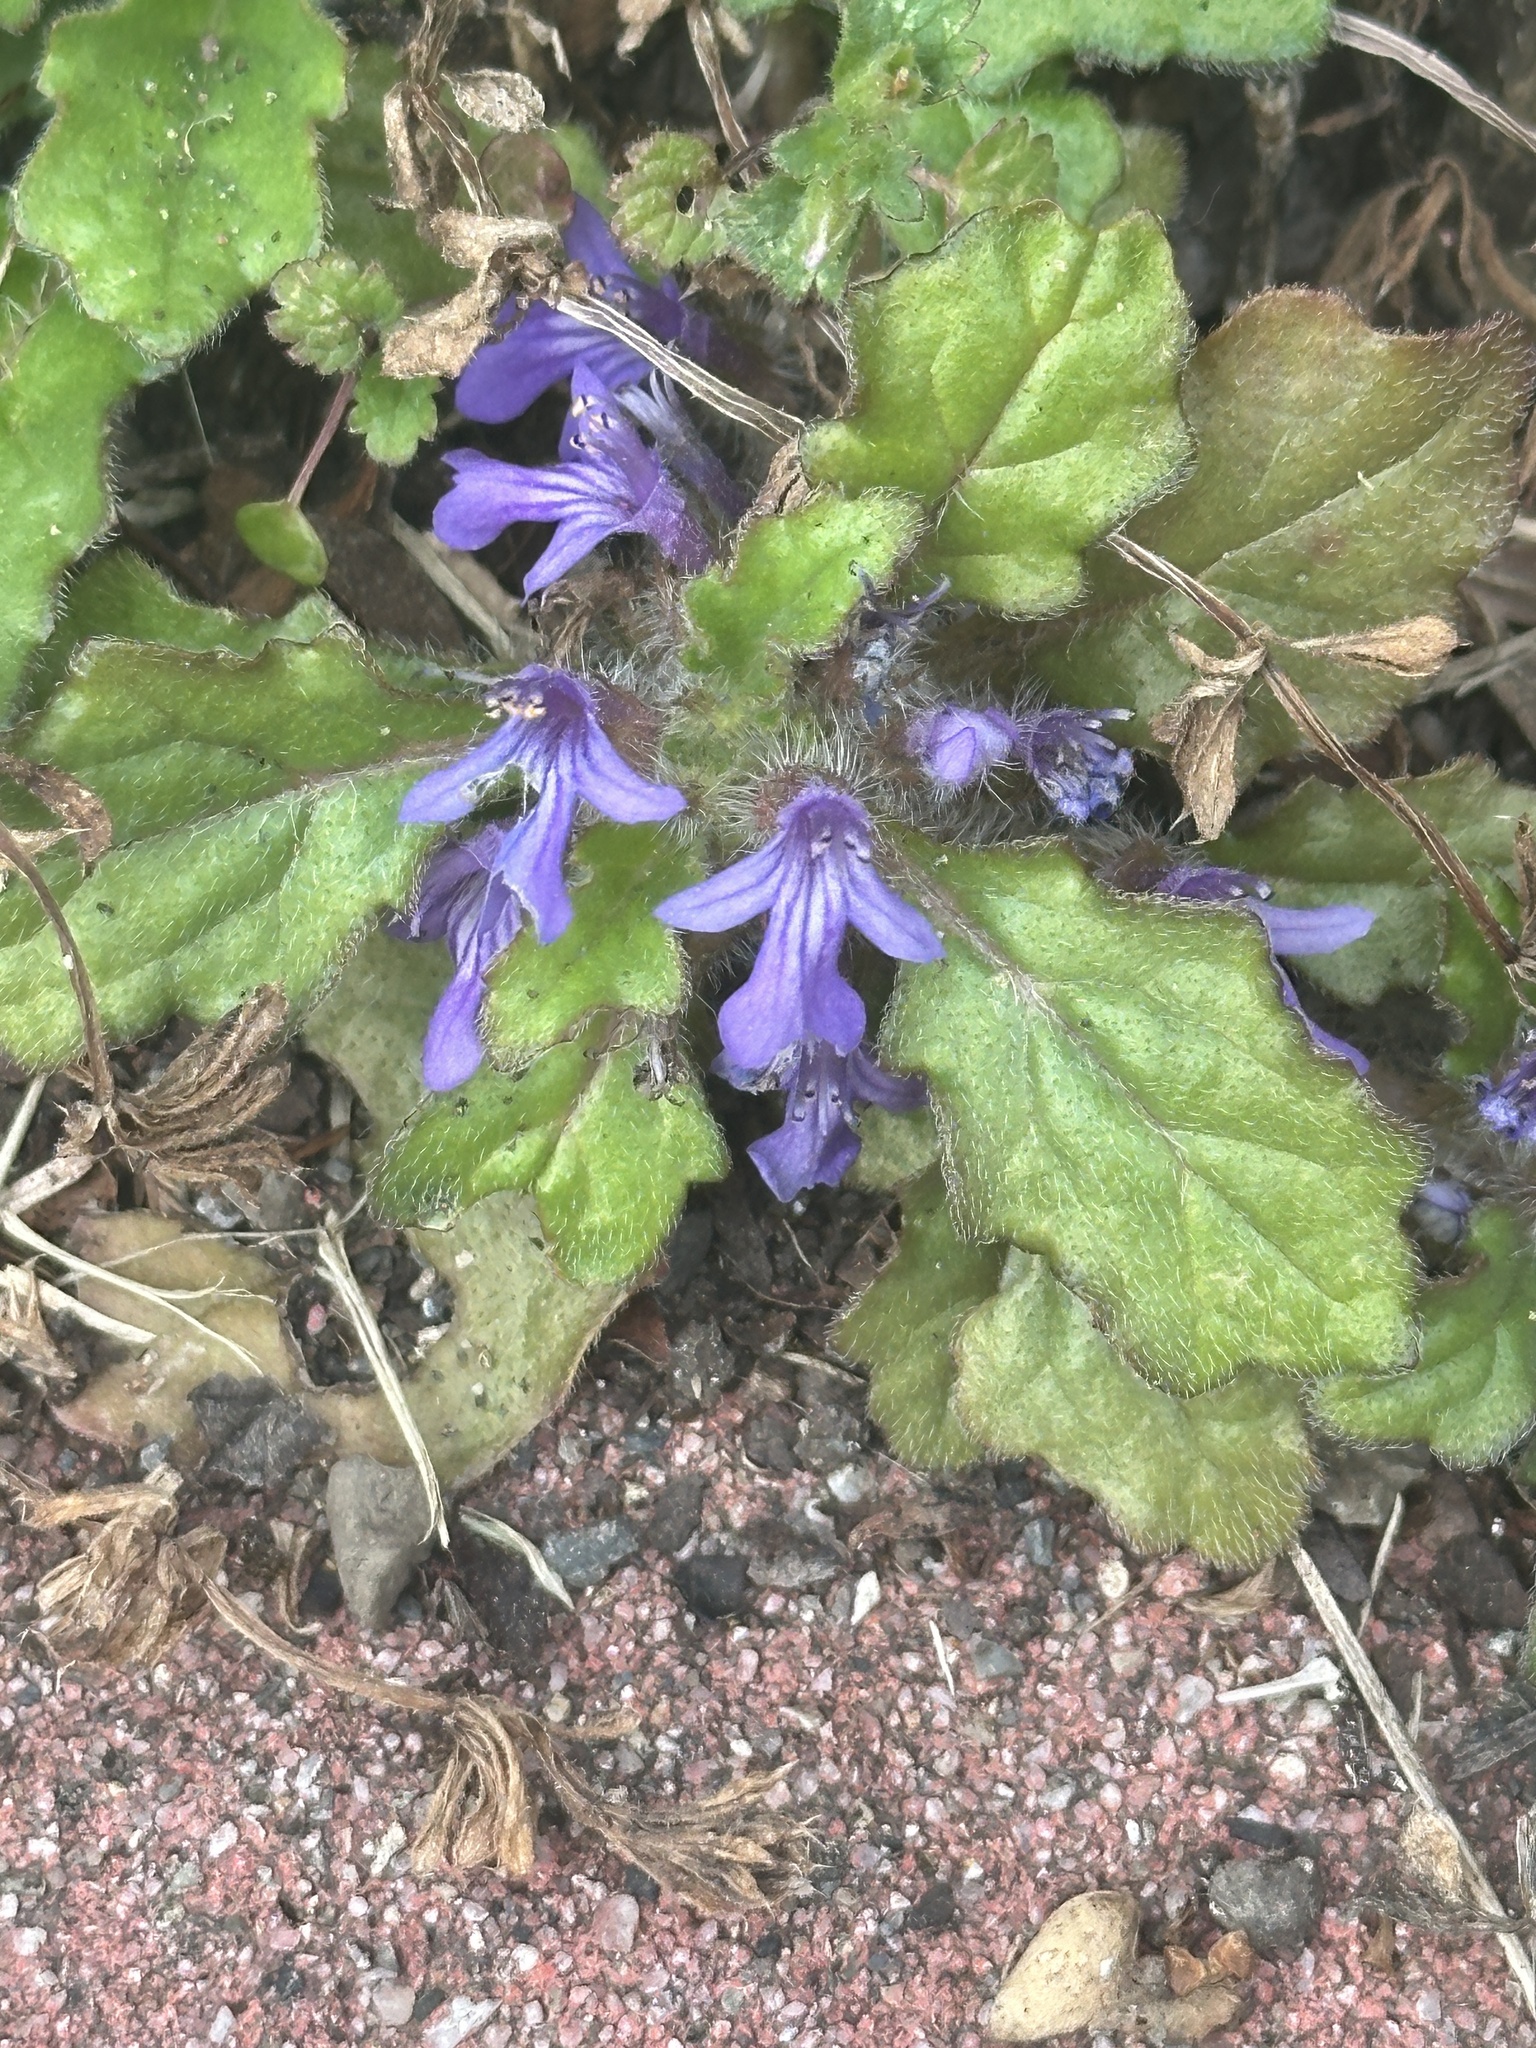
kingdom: Plantae
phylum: Tracheophyta
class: Magnoliopsida
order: Lamiales
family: Lamiaceae
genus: Ajuga
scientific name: Ajuga decumbens
